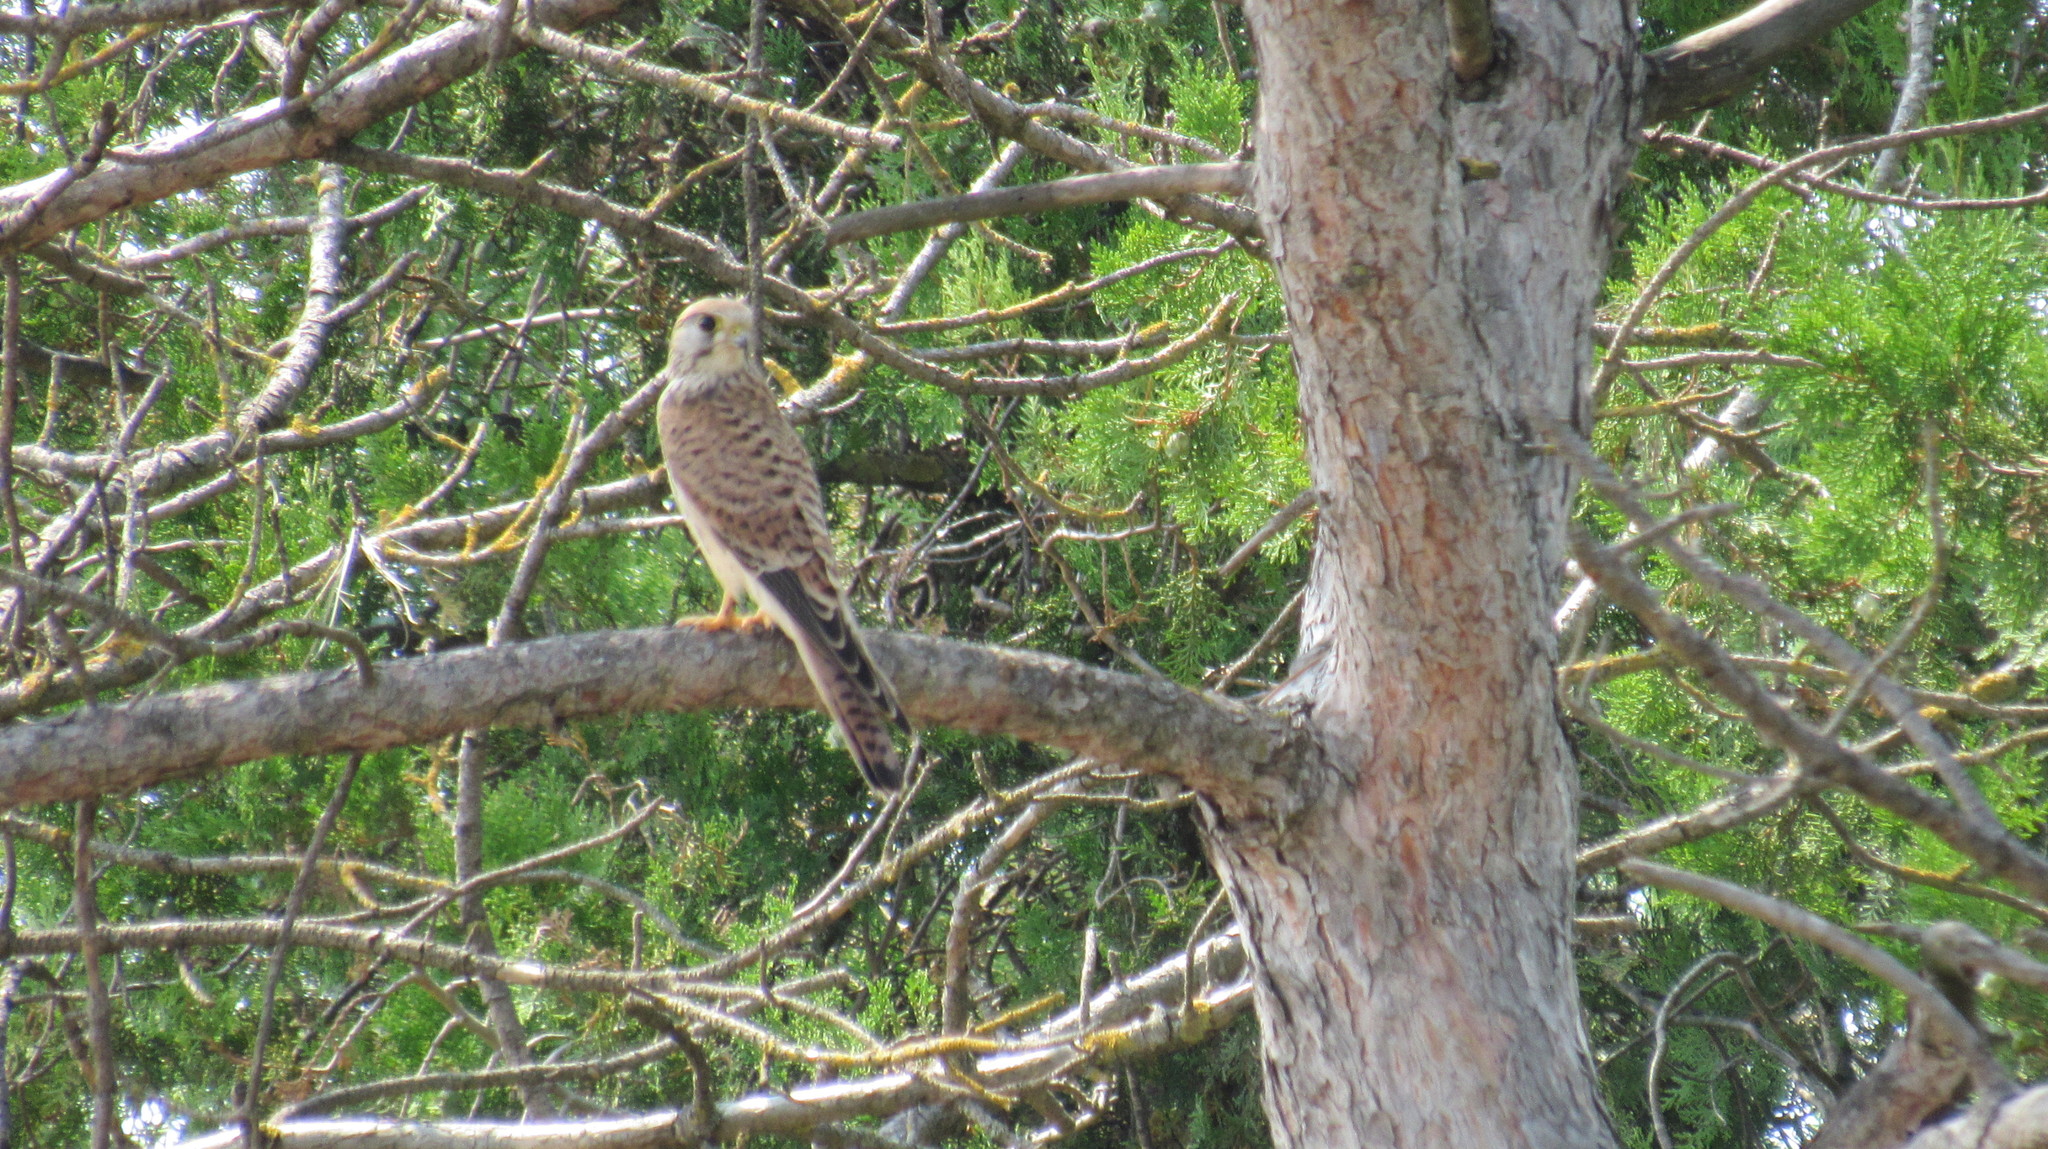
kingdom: Animalia
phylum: Chordata
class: Aves
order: Falconiformes
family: Falconidae
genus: Falco
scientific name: Falco tinnunculus
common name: Common kestrel
